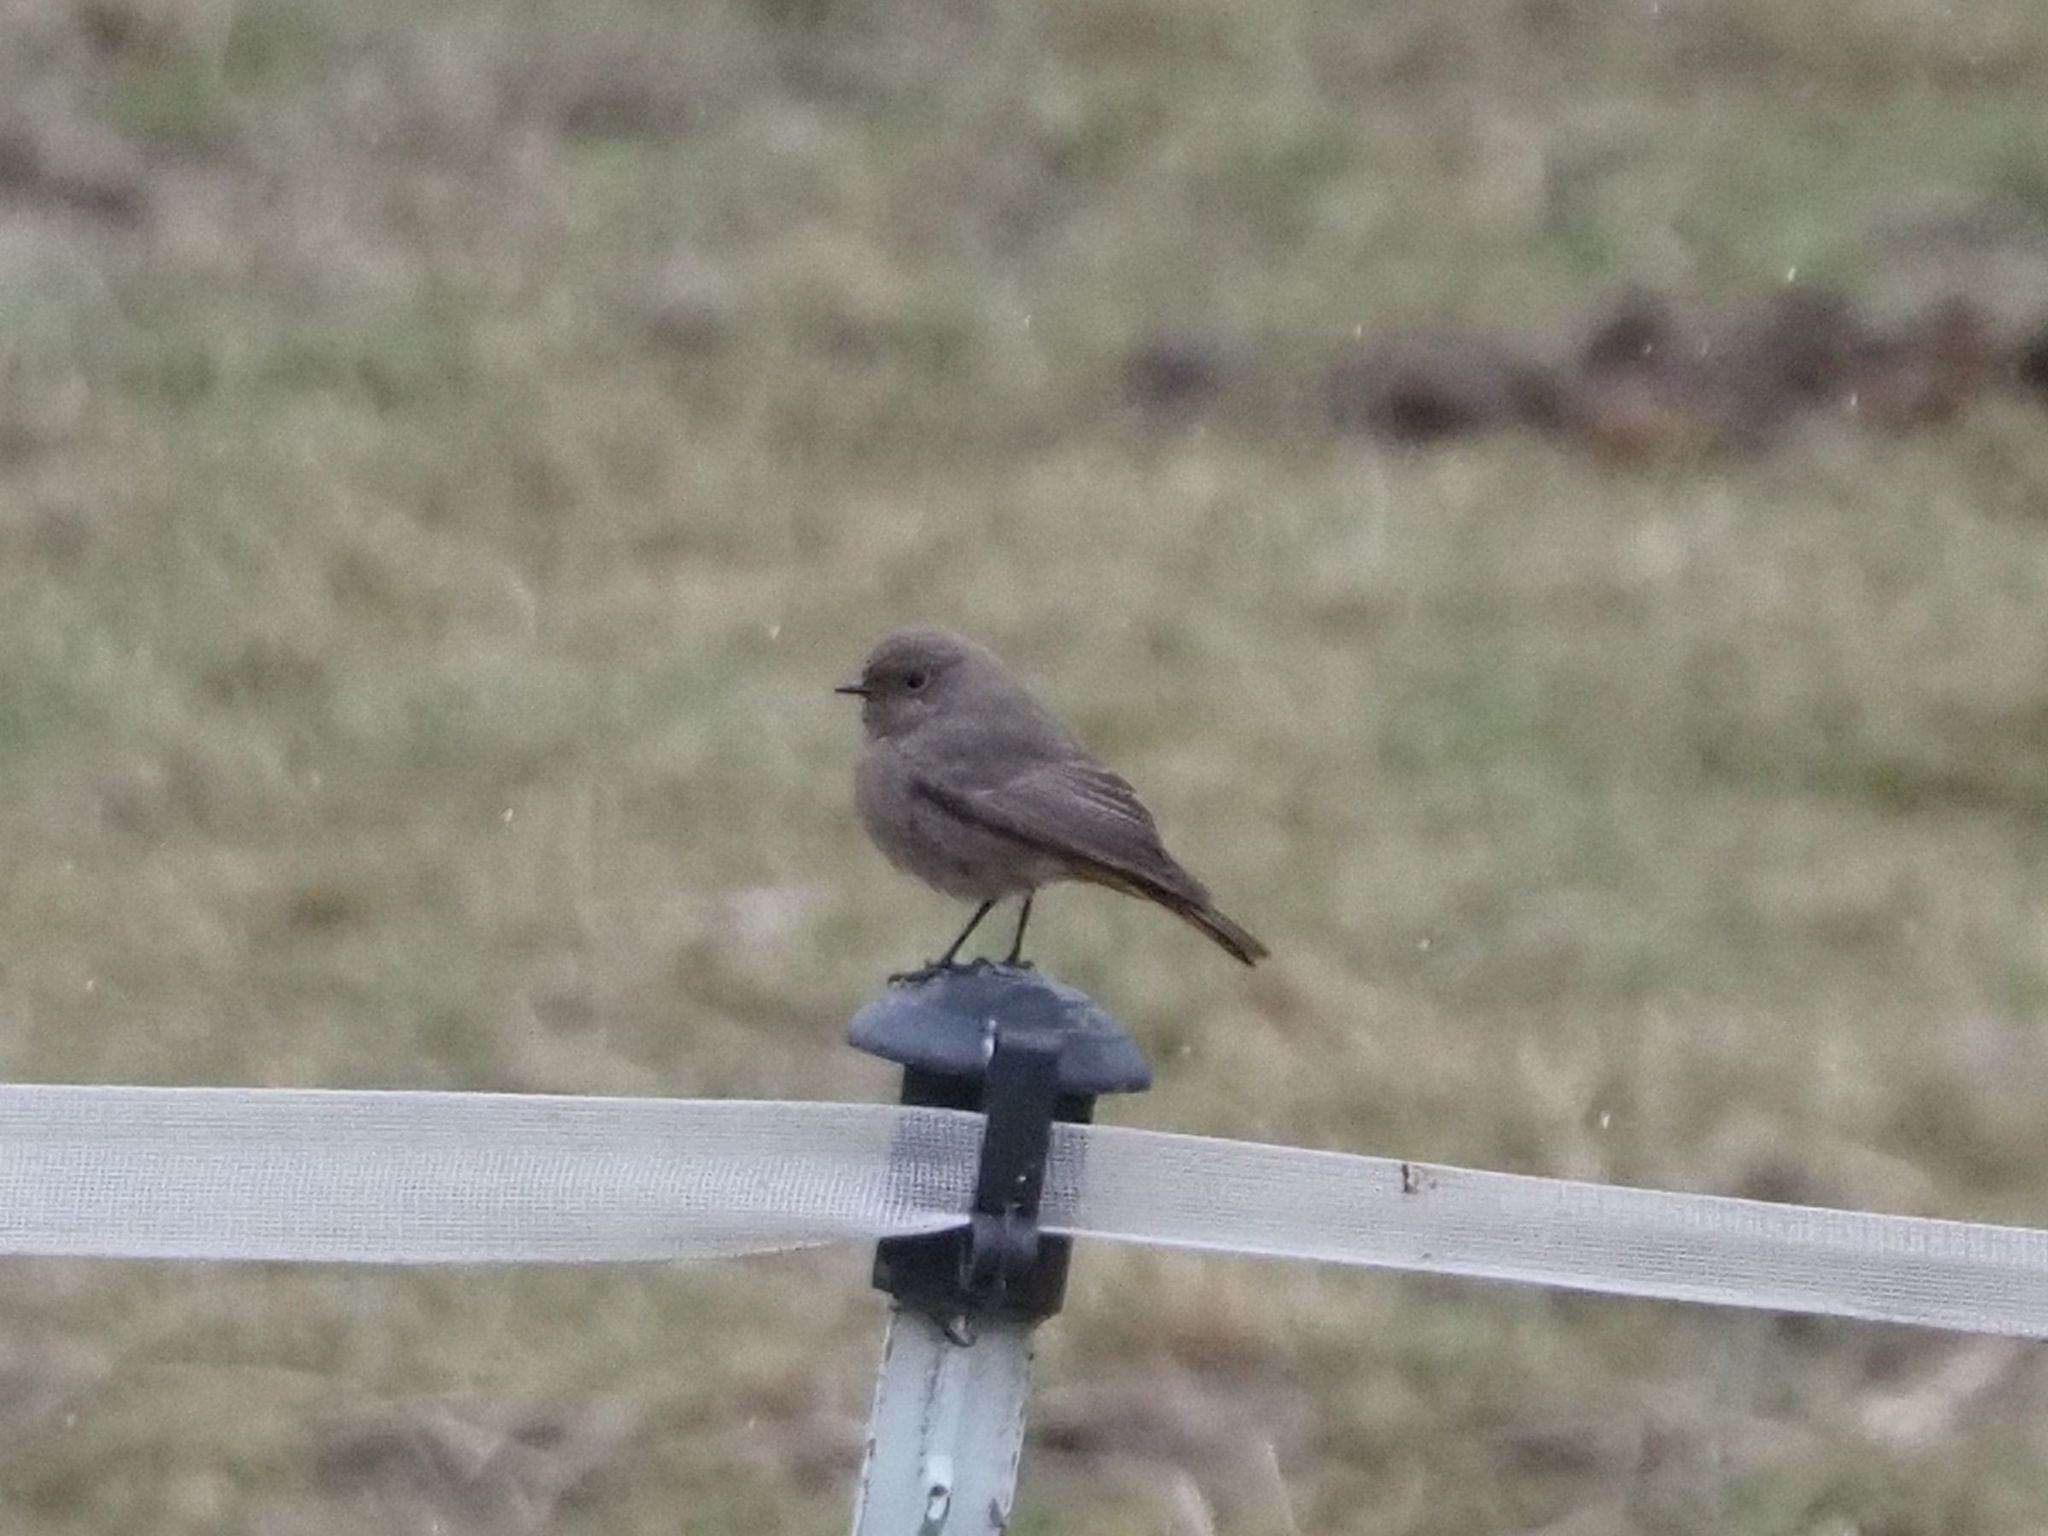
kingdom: Animalia
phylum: Chordata
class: Aves
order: Passeriformes
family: Muscicapidae
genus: Phoenicurus
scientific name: Phoenicurus ochruros
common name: Black redstart
